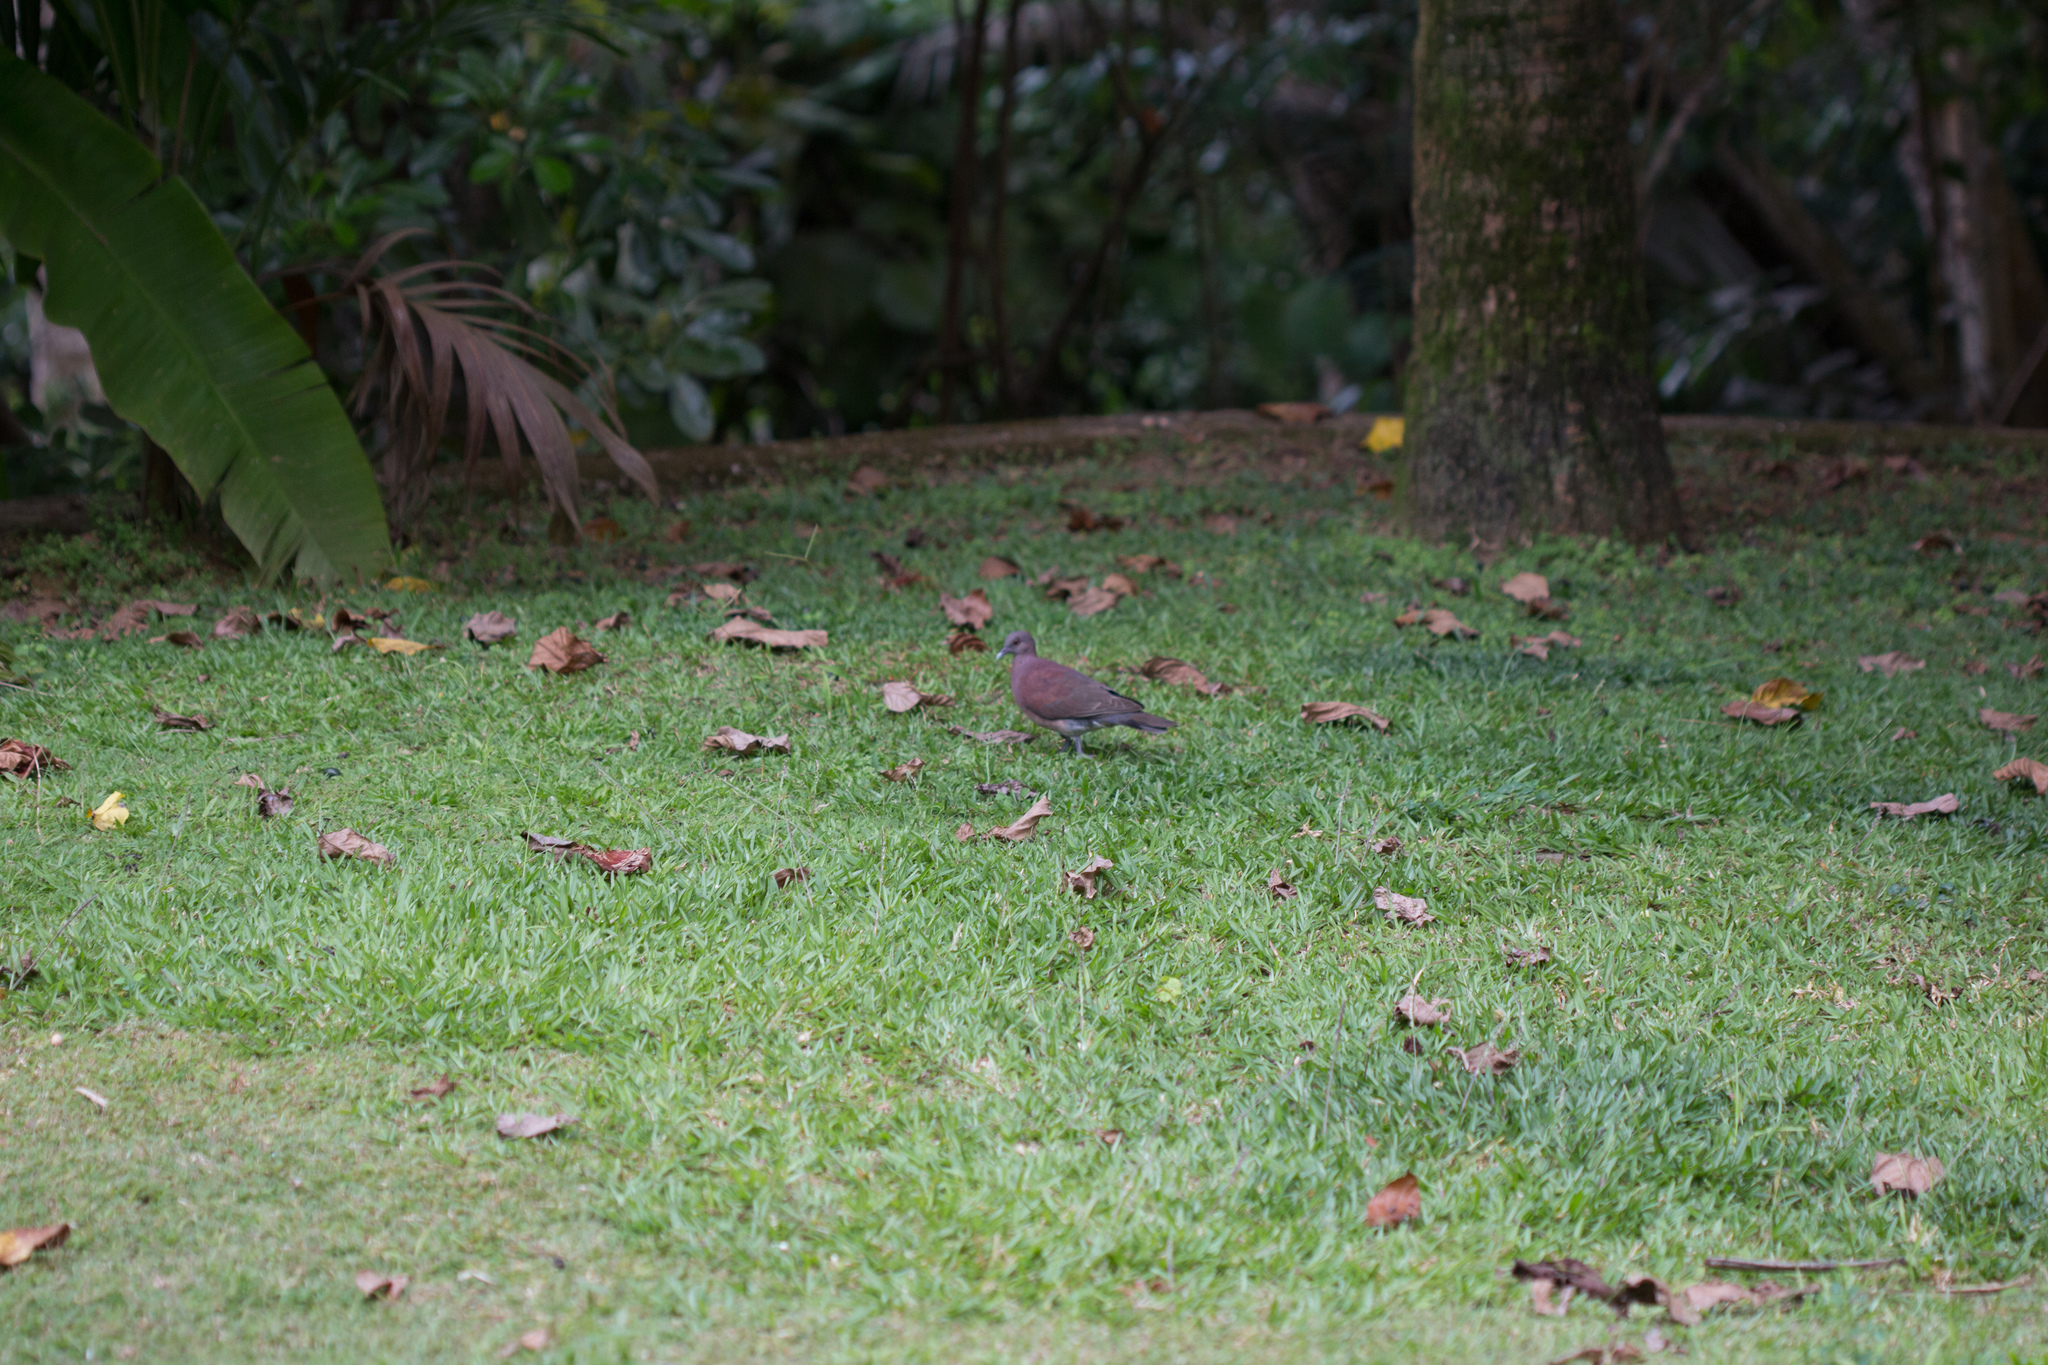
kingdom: Animalia
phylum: Chordata
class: Aves
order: Columbiformes
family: Columbidae
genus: Nesoenas
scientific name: Nesoenas picturatus
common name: Malagasy turtle dove
